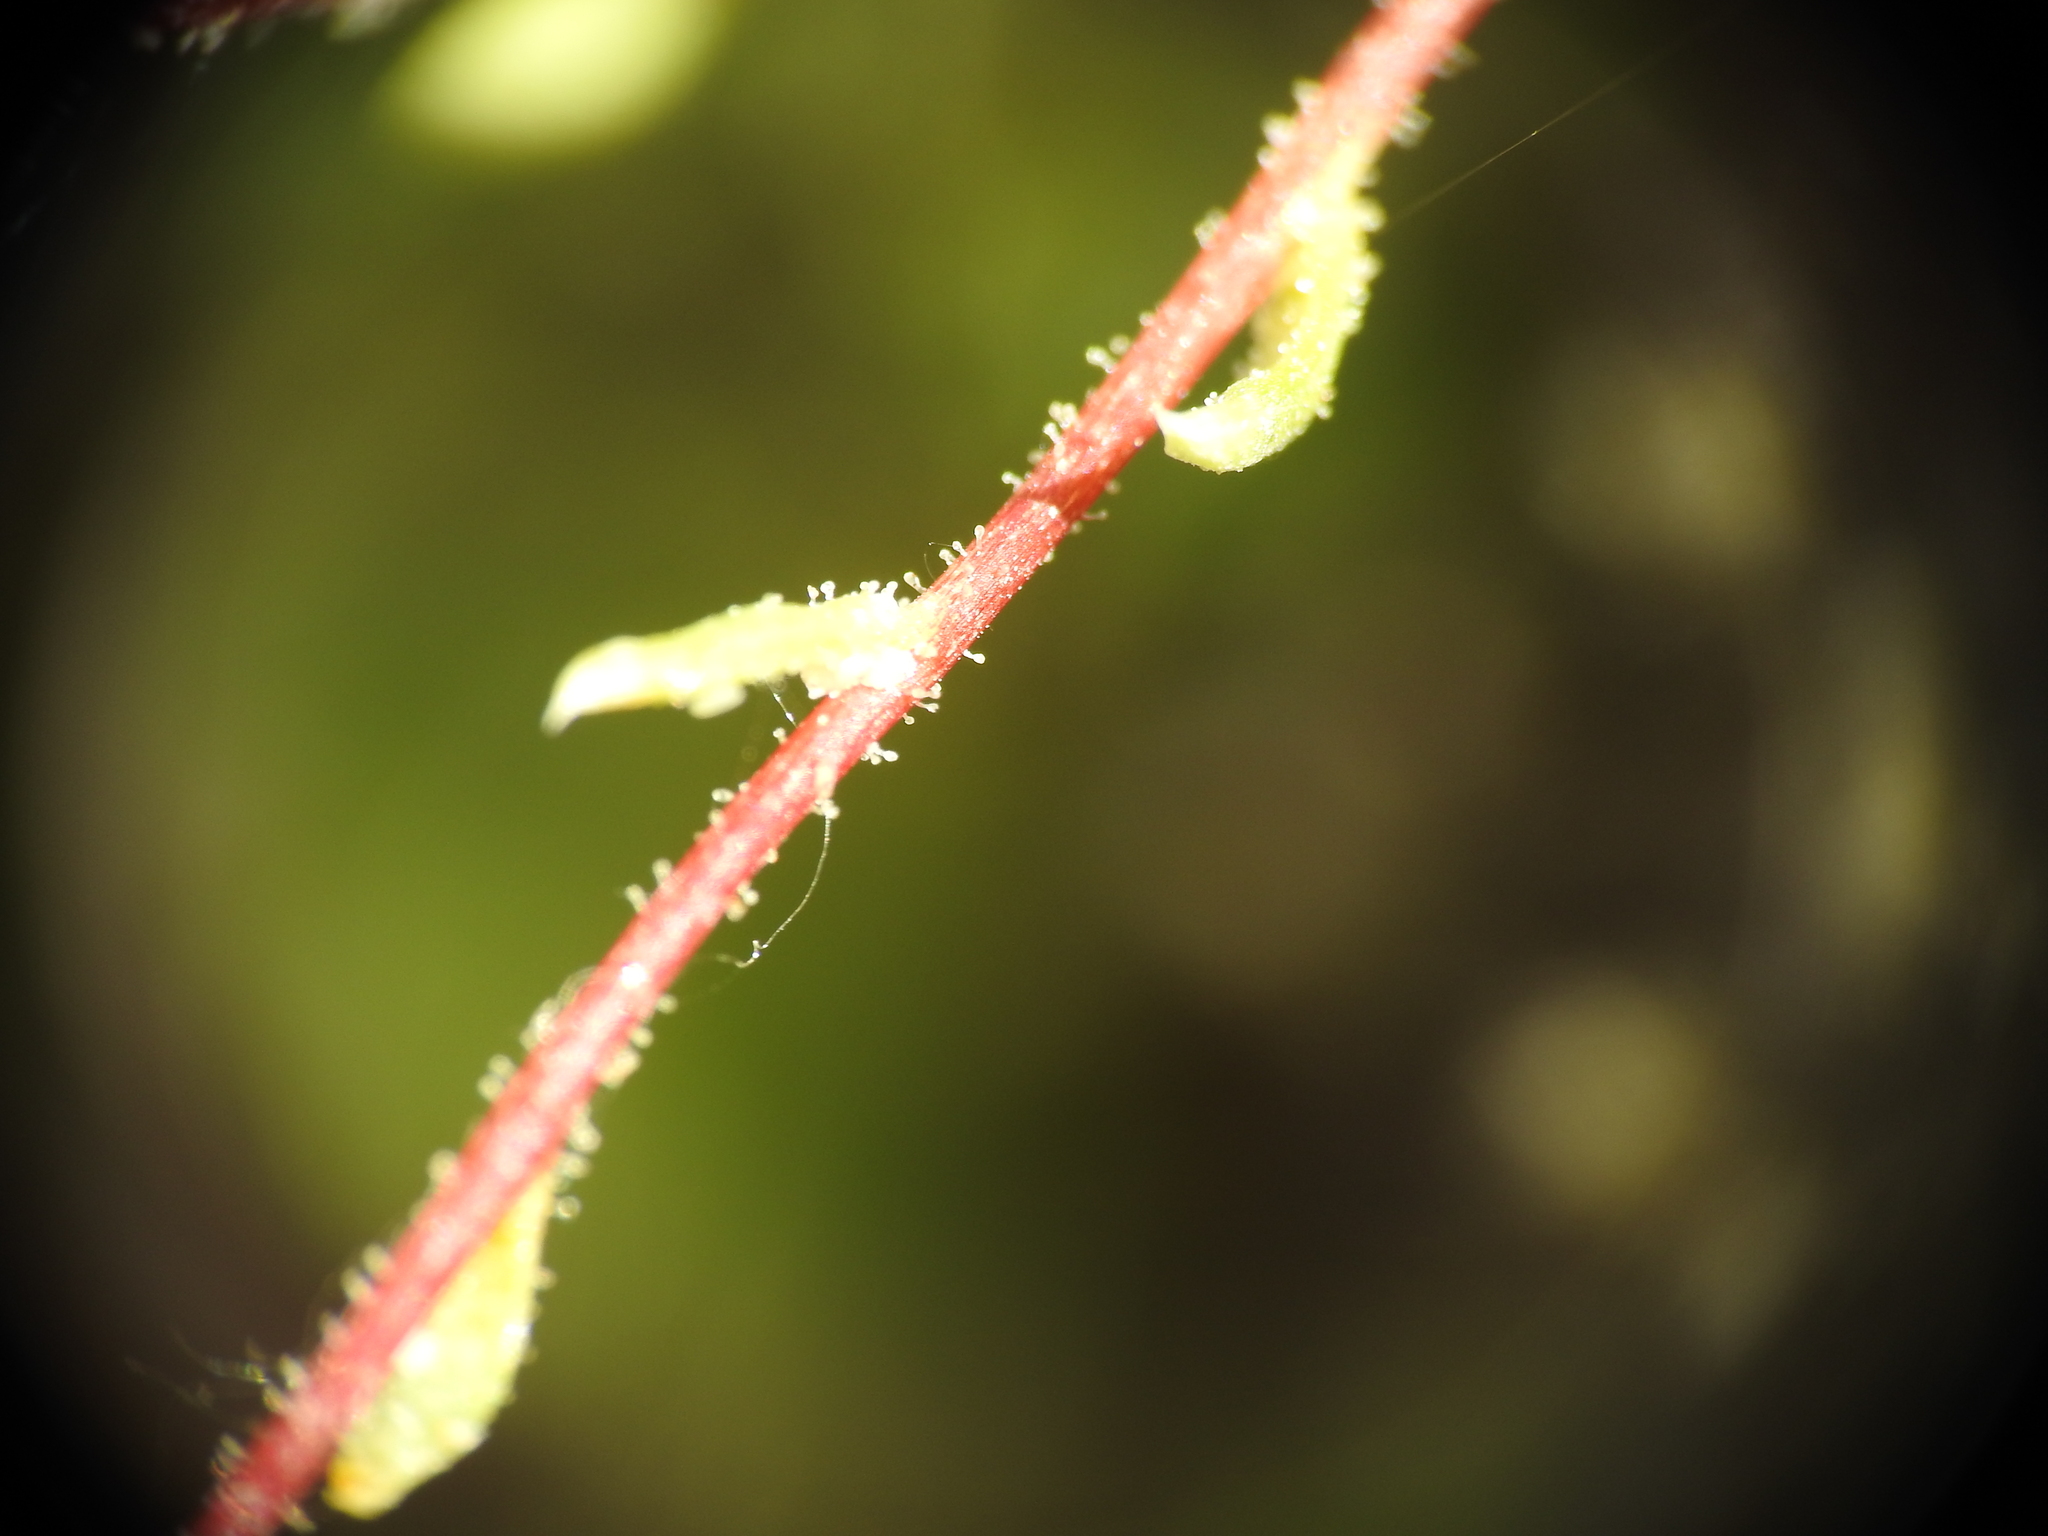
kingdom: Plantae
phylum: Tracheophyta
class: Magnoliopsida
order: Saxifragales
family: Saxifragaceae
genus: Saxifraga
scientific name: Saxifraga bryoides
